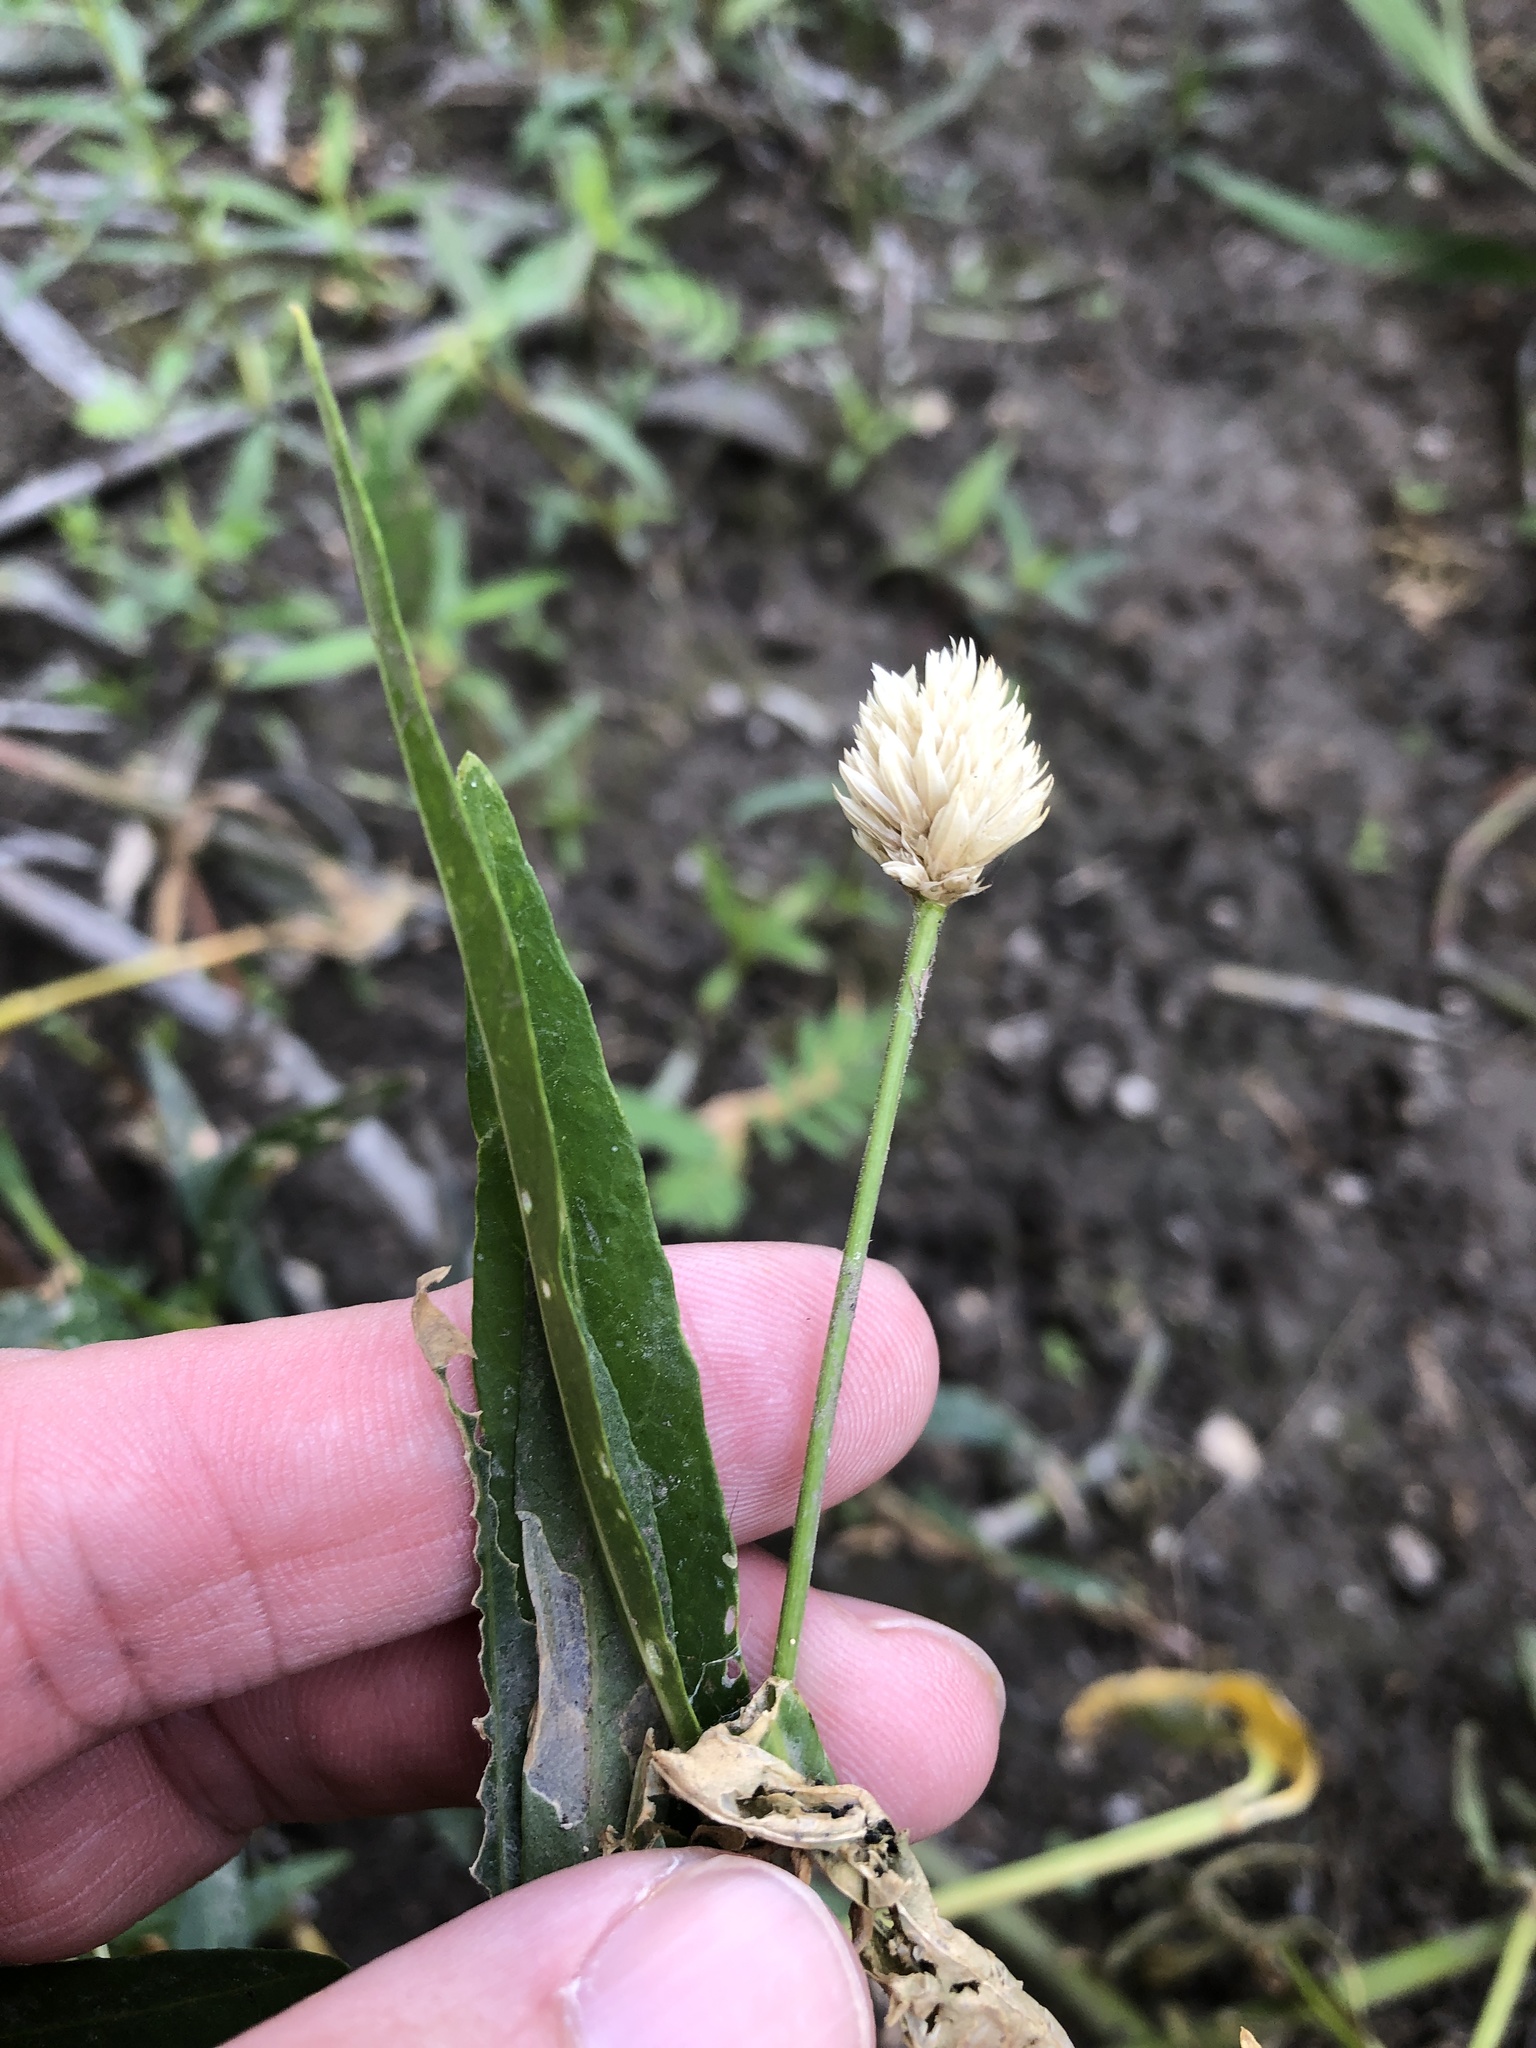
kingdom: Plantae
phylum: Tracheophyta
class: Magnoliopsida
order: Caryophyllales
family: Amaranthaceae
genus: Alternanthera
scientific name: Alternanthera philoxeroides
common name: Alligatorweed
